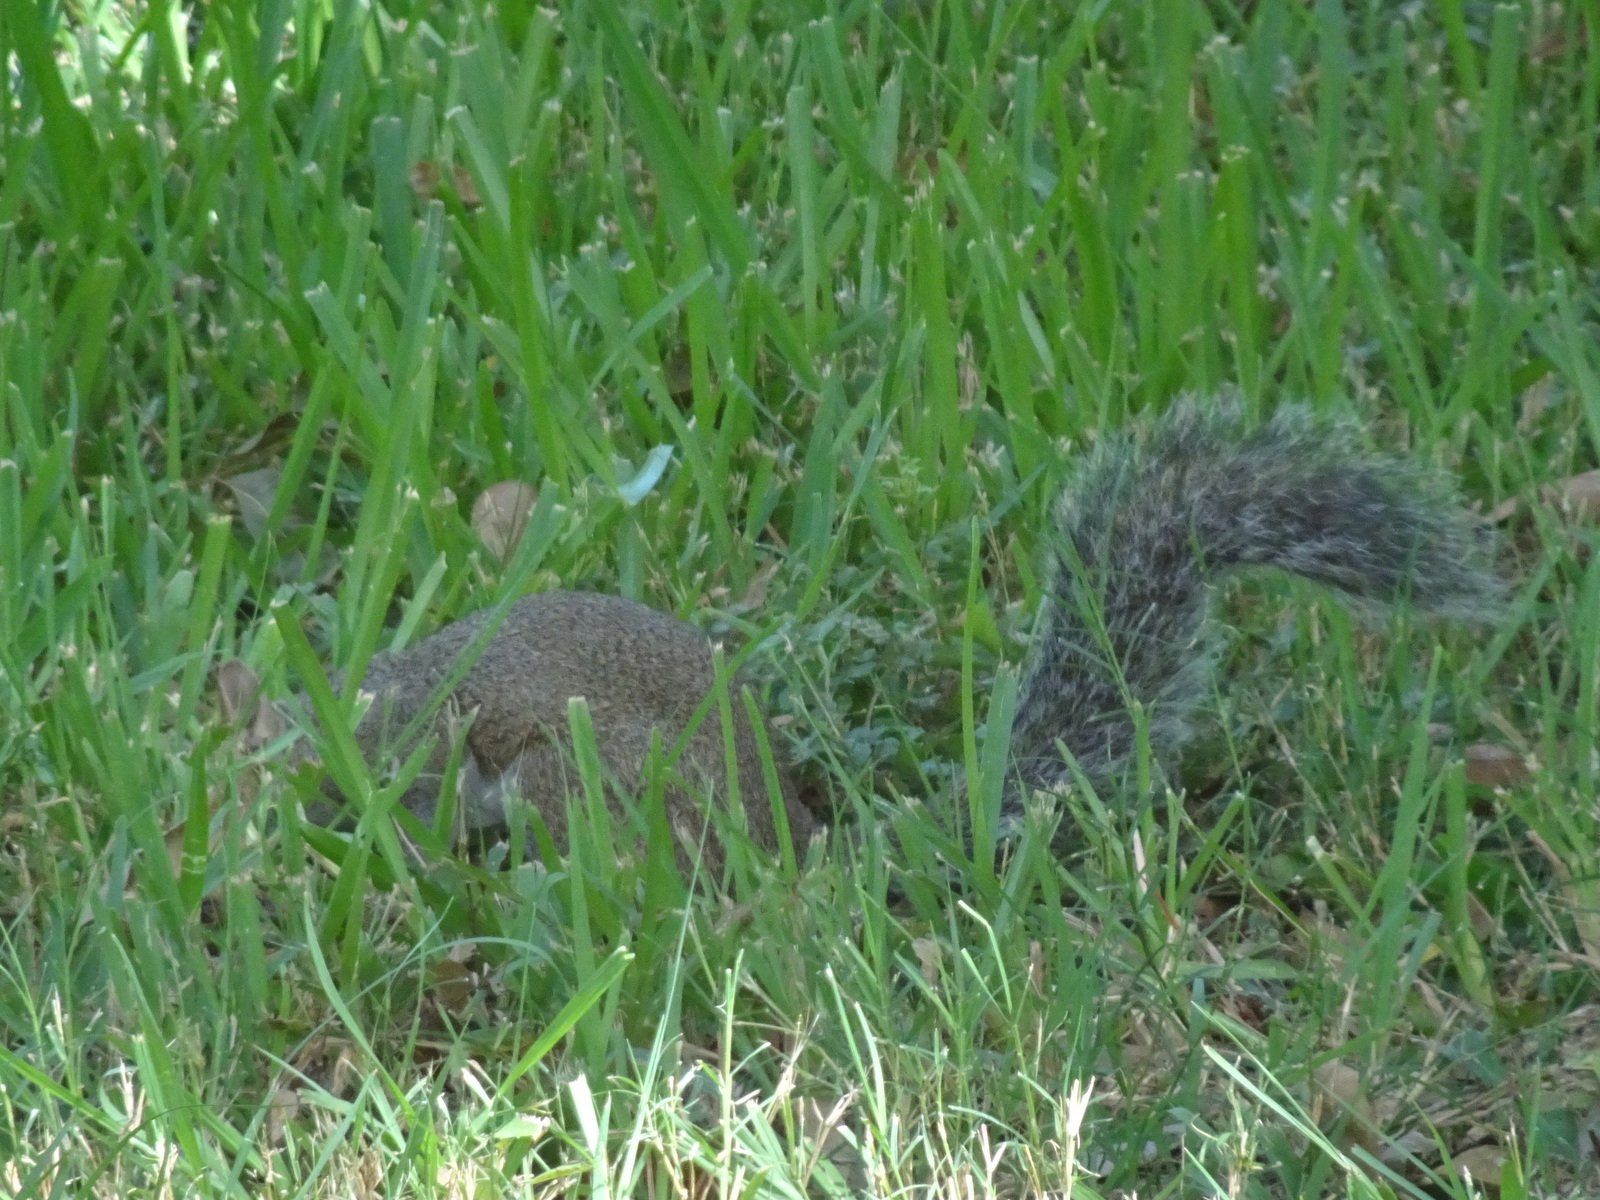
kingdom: Animalia
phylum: Chordata
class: Mammalia
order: Rodentia
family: Sciuridae
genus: Sciurus
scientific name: Sciurus carolinensis
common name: Eastern gray squirrel
